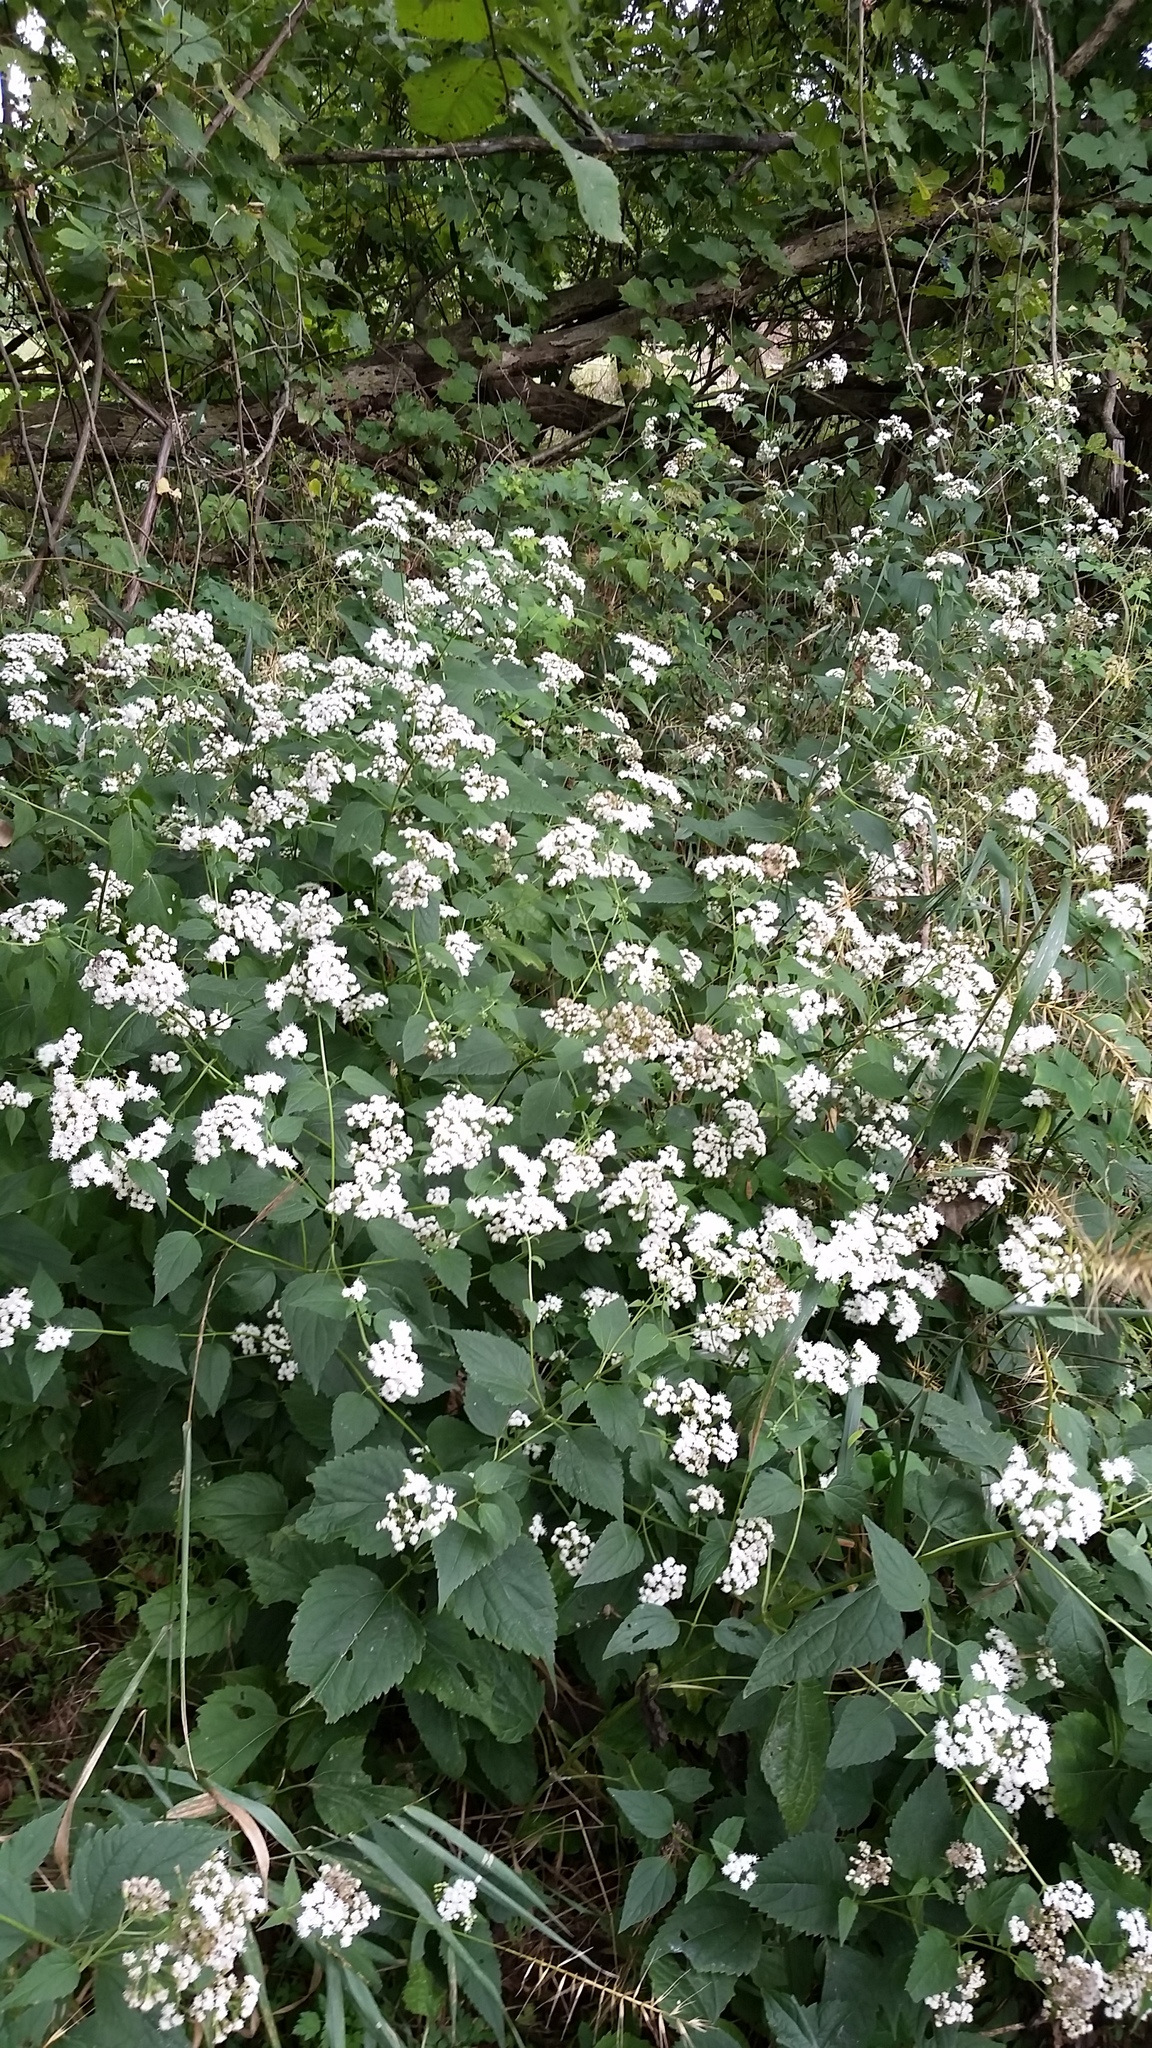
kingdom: Plantae
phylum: Tracheophyta
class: Magnoliopsida
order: Asterales
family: Asteraceae
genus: Ageratina
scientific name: Ageratina altissima
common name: White snakeroot
